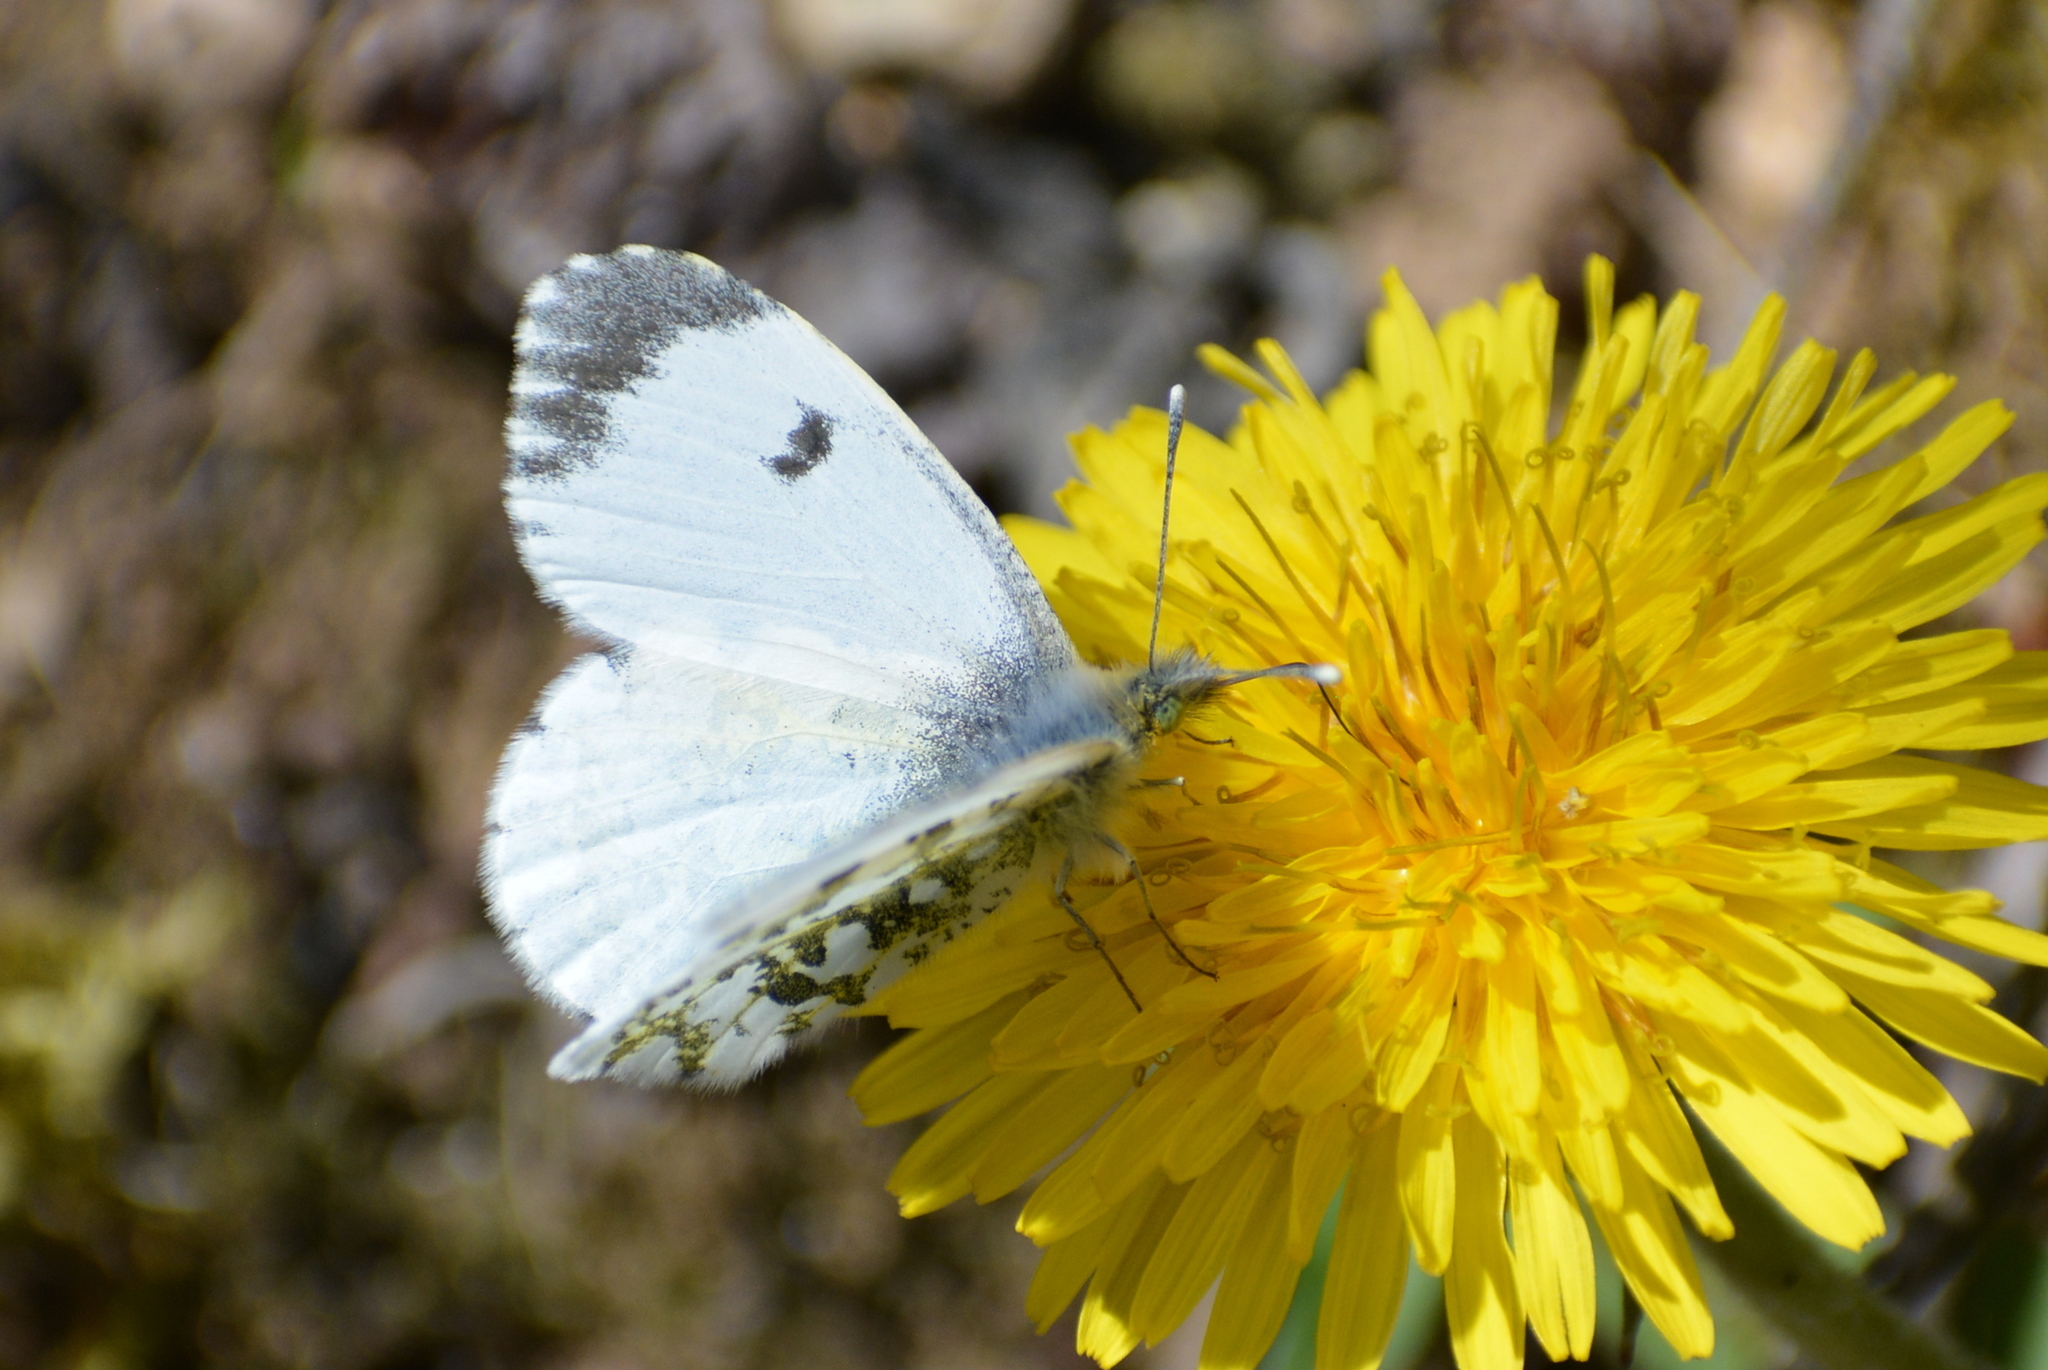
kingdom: Animalia
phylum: Arthropoda
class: Insecta
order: Lepidoptera
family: Pieridae
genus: Anthocharis
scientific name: Anthocharis cardamines
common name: Orange-tip
